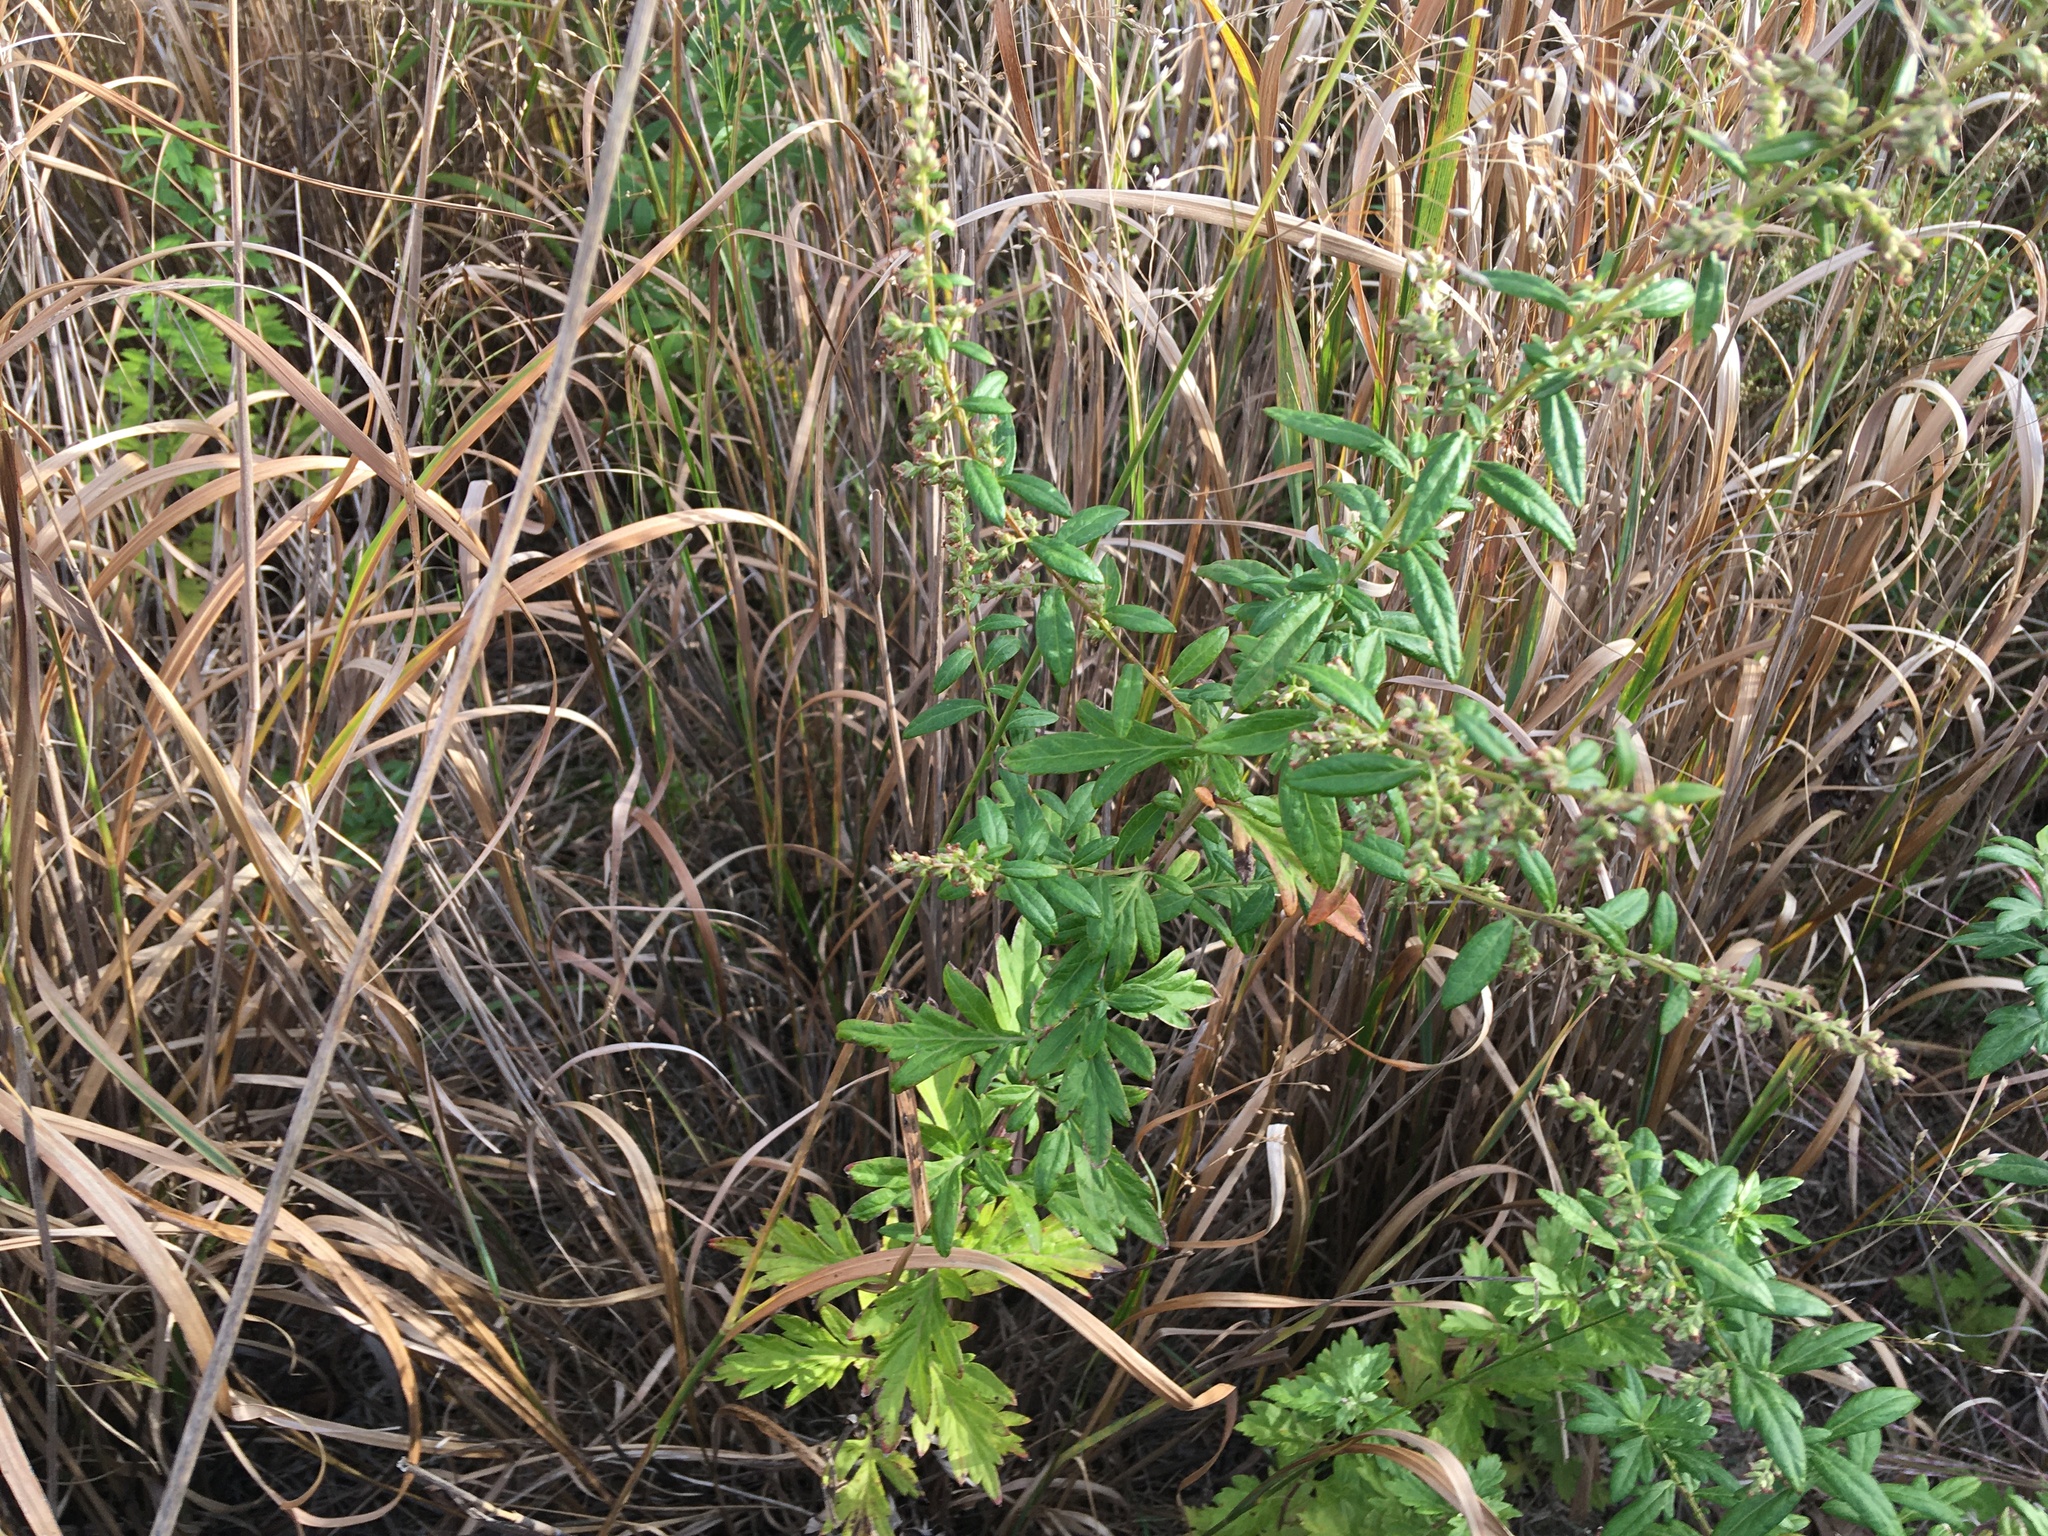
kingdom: Plantae
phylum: Tracheophyta
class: Magnoliopsida
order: Asterales
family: Asteraceae
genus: Artemisia
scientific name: Artemisia vulgaris
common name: Mugwort
